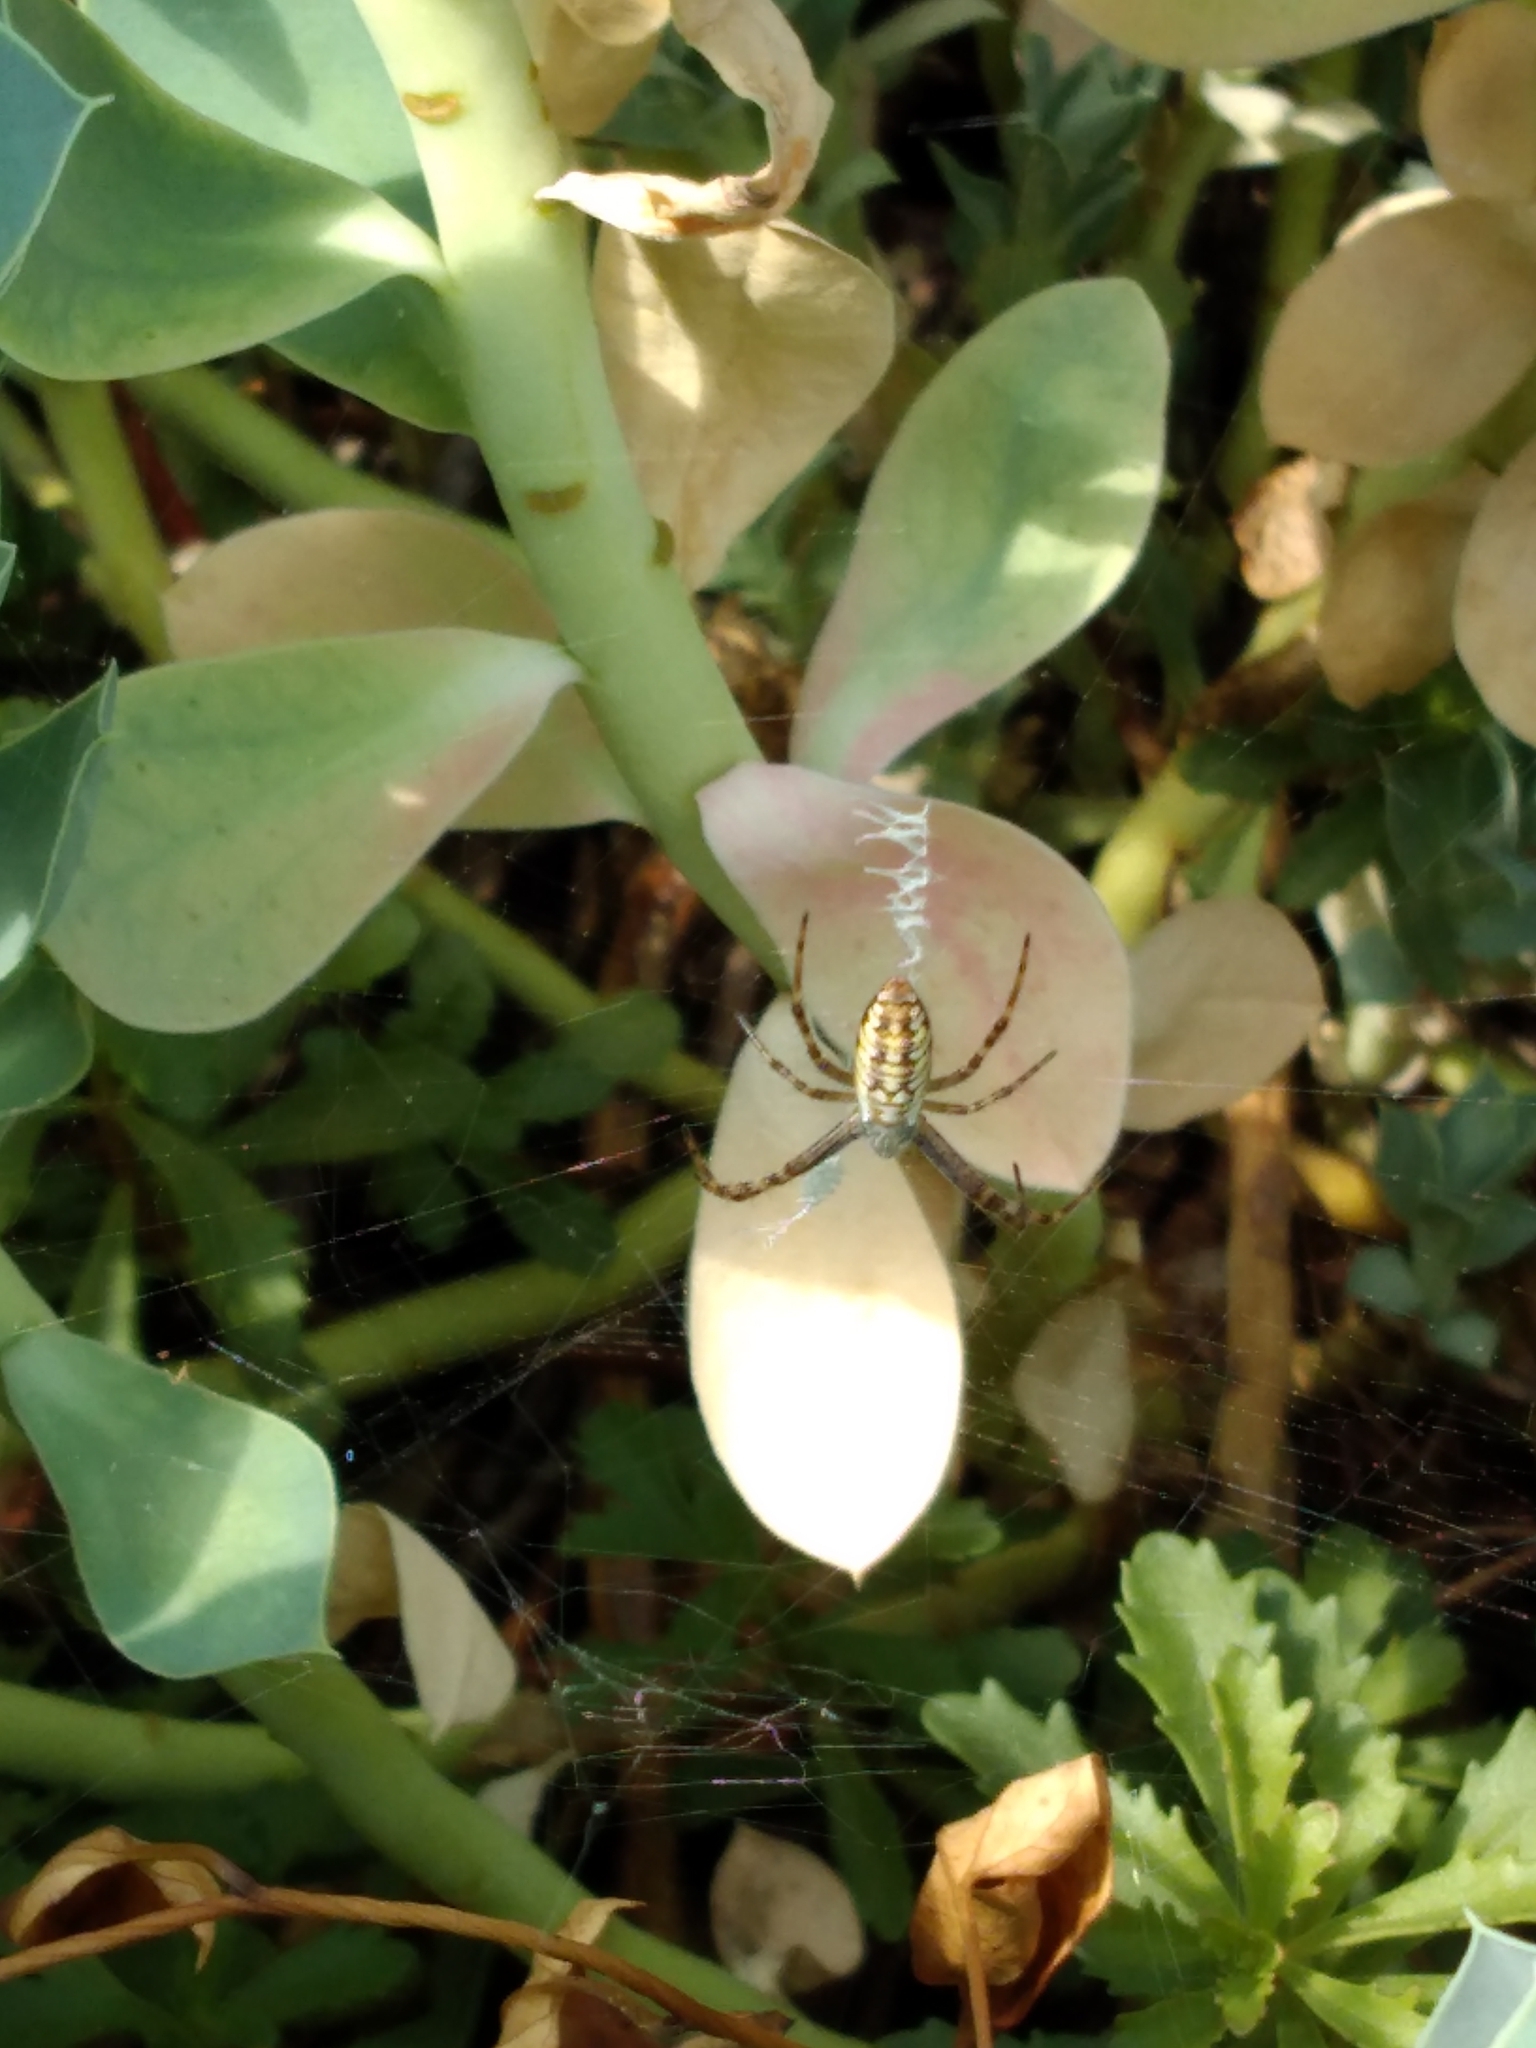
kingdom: Animalia
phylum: Arthropoda
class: Arachnida
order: Araneae
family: Araneidae
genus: Argiope
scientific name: Argiope bruennichi
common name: Wasp spider
